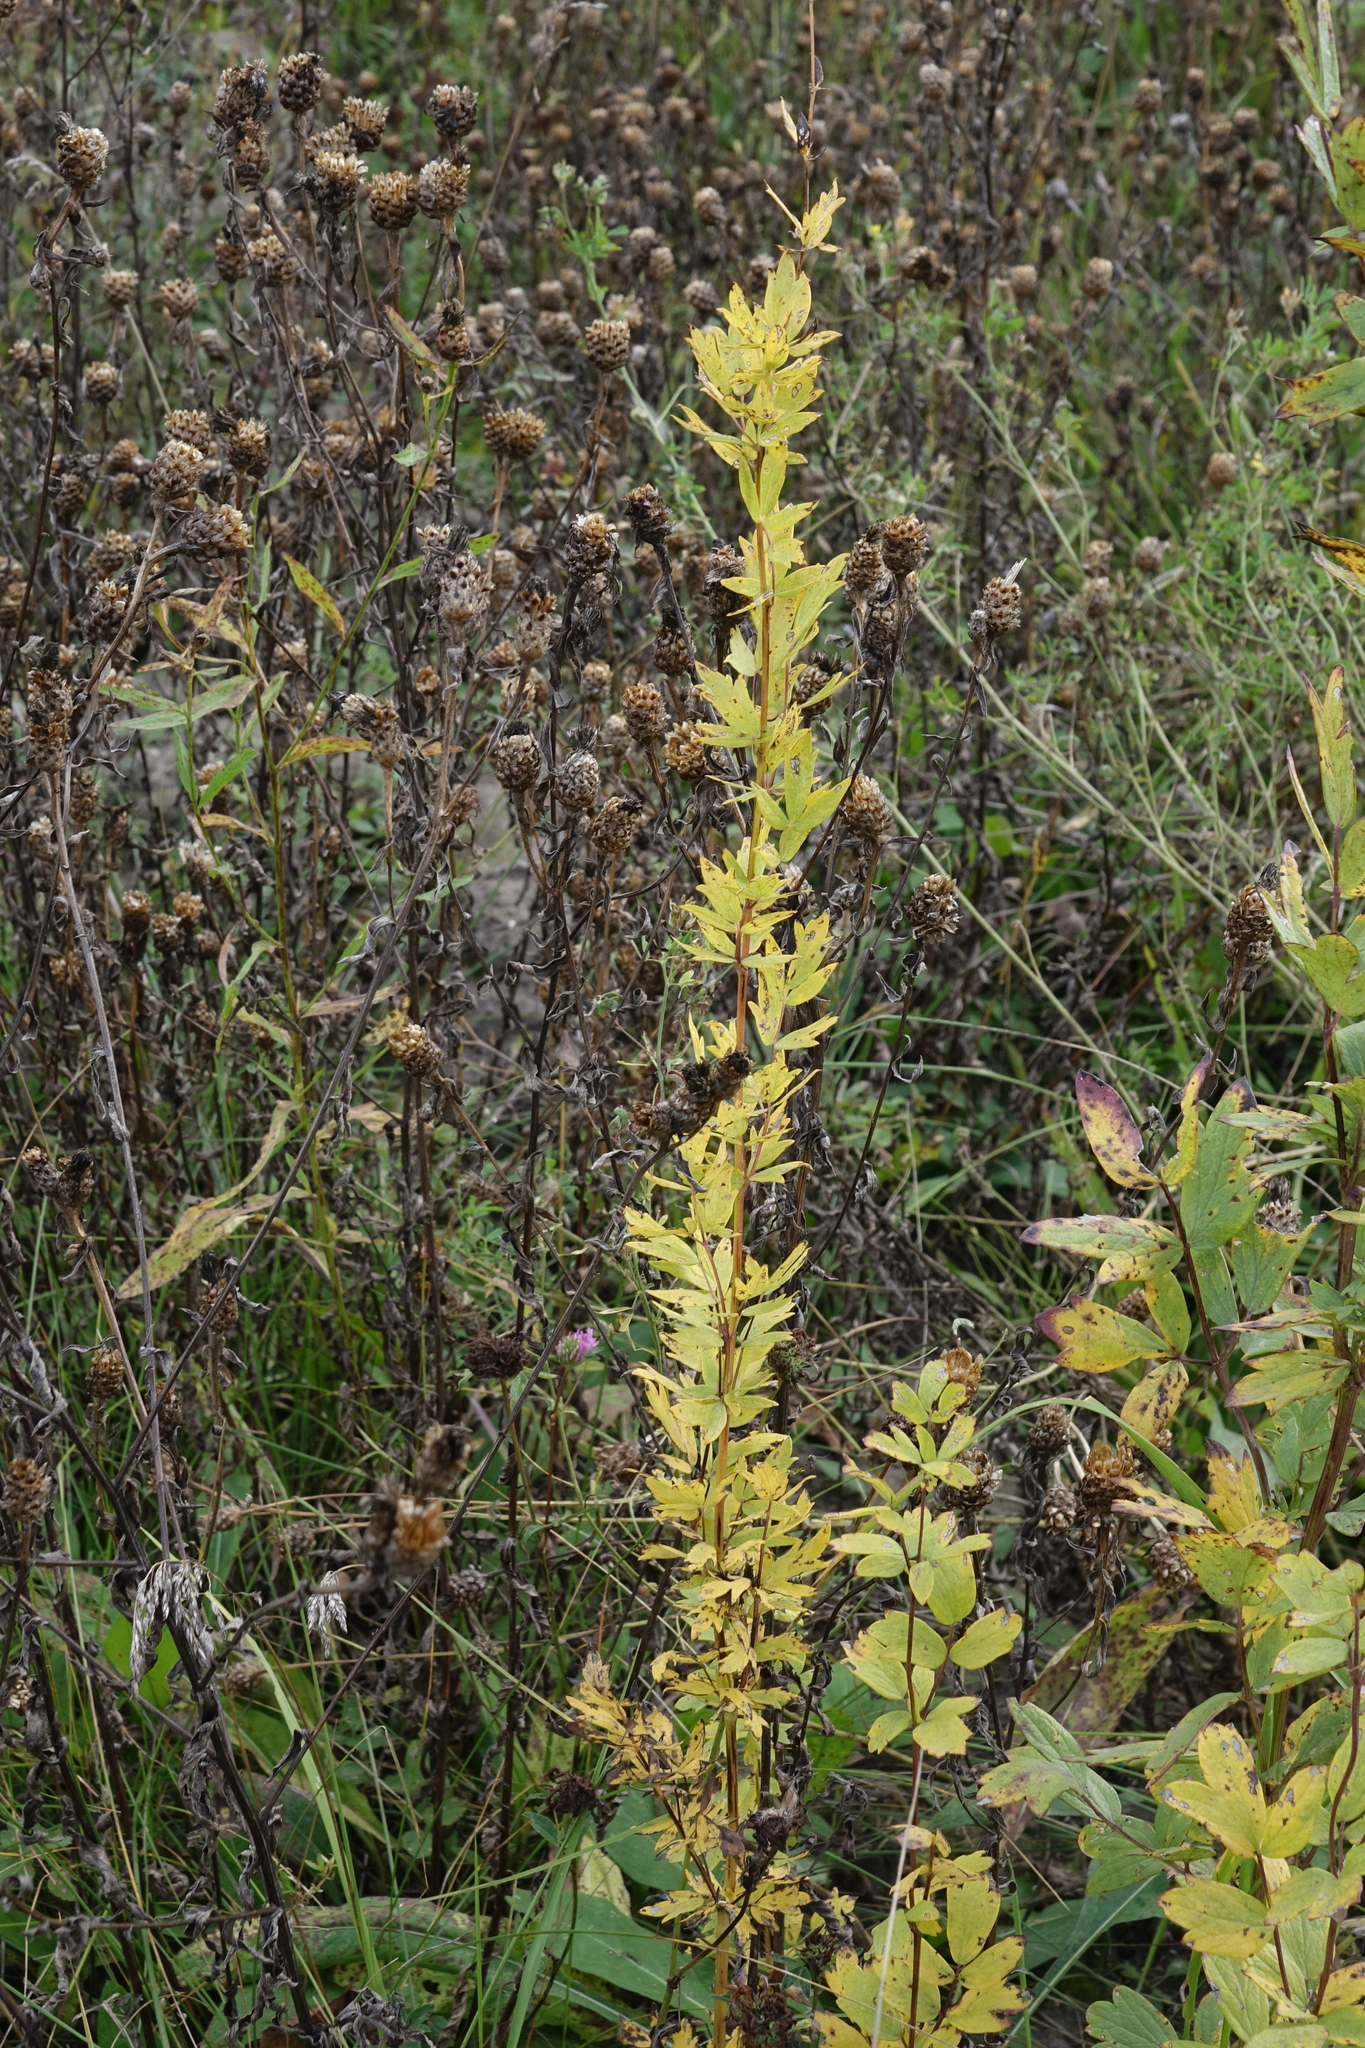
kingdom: Plantae
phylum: Tracheophyta
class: Magnoliopsida
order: Ranunculales
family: Ranunculaceae
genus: Thalictrum
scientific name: Thalictrum simplex
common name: Small meadow-rue
